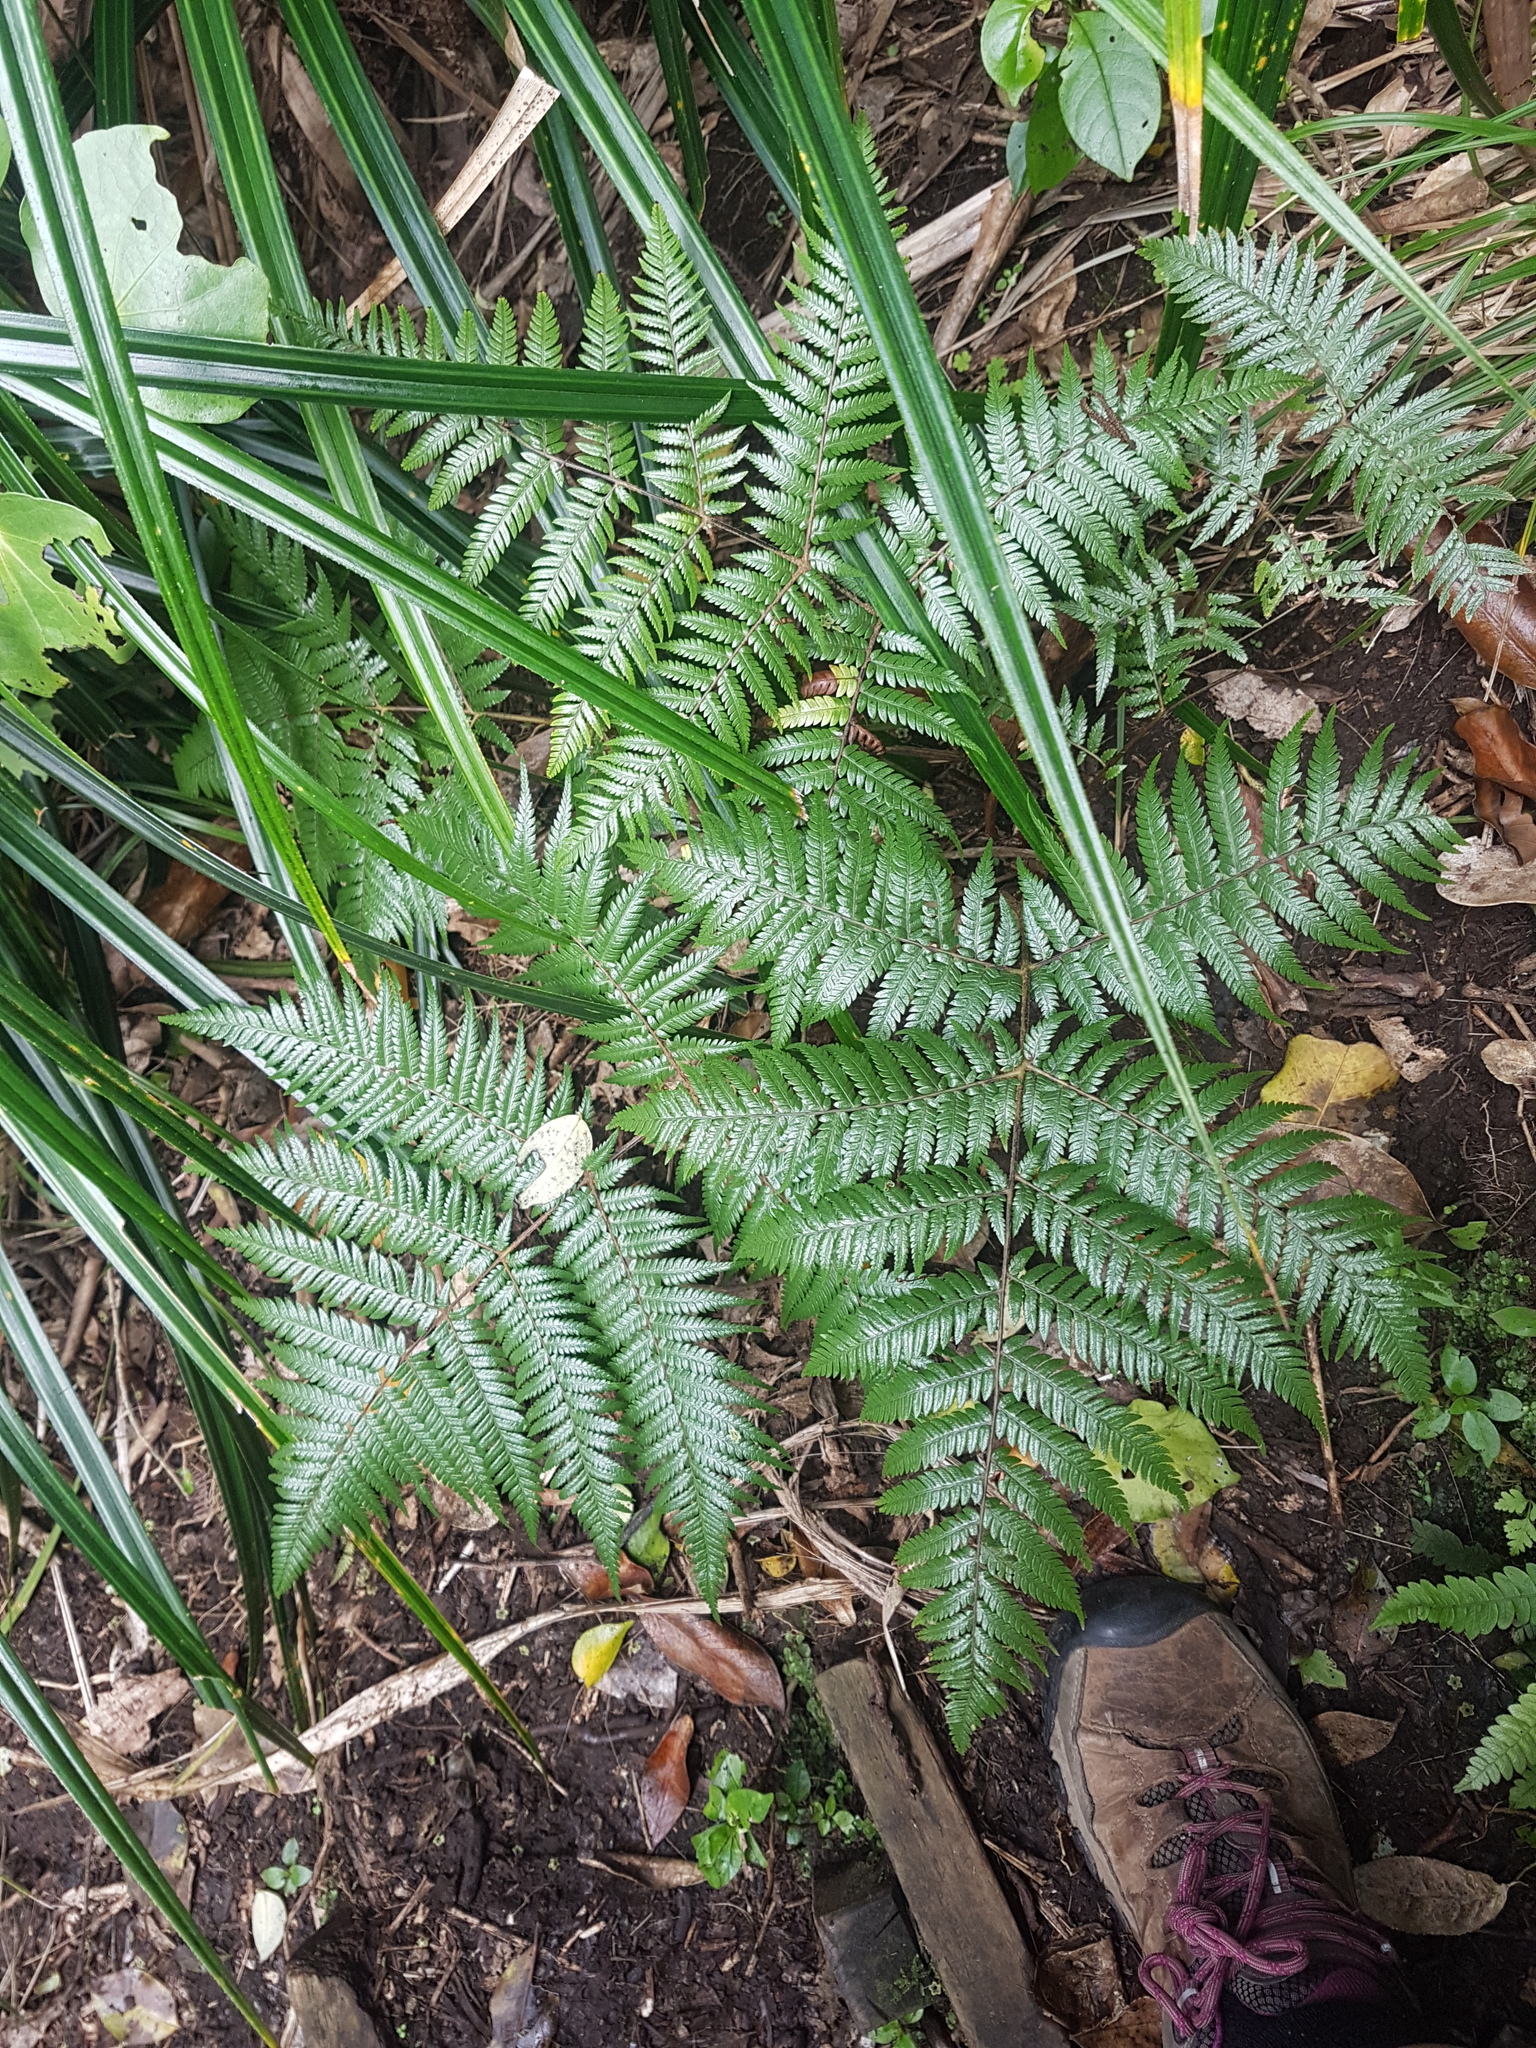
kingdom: Plantae
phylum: Tracheophyta
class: Polypodiopsida
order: Cyatheales
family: Cyatheaceae
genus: Alsophila
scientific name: Alsophila dealbata
